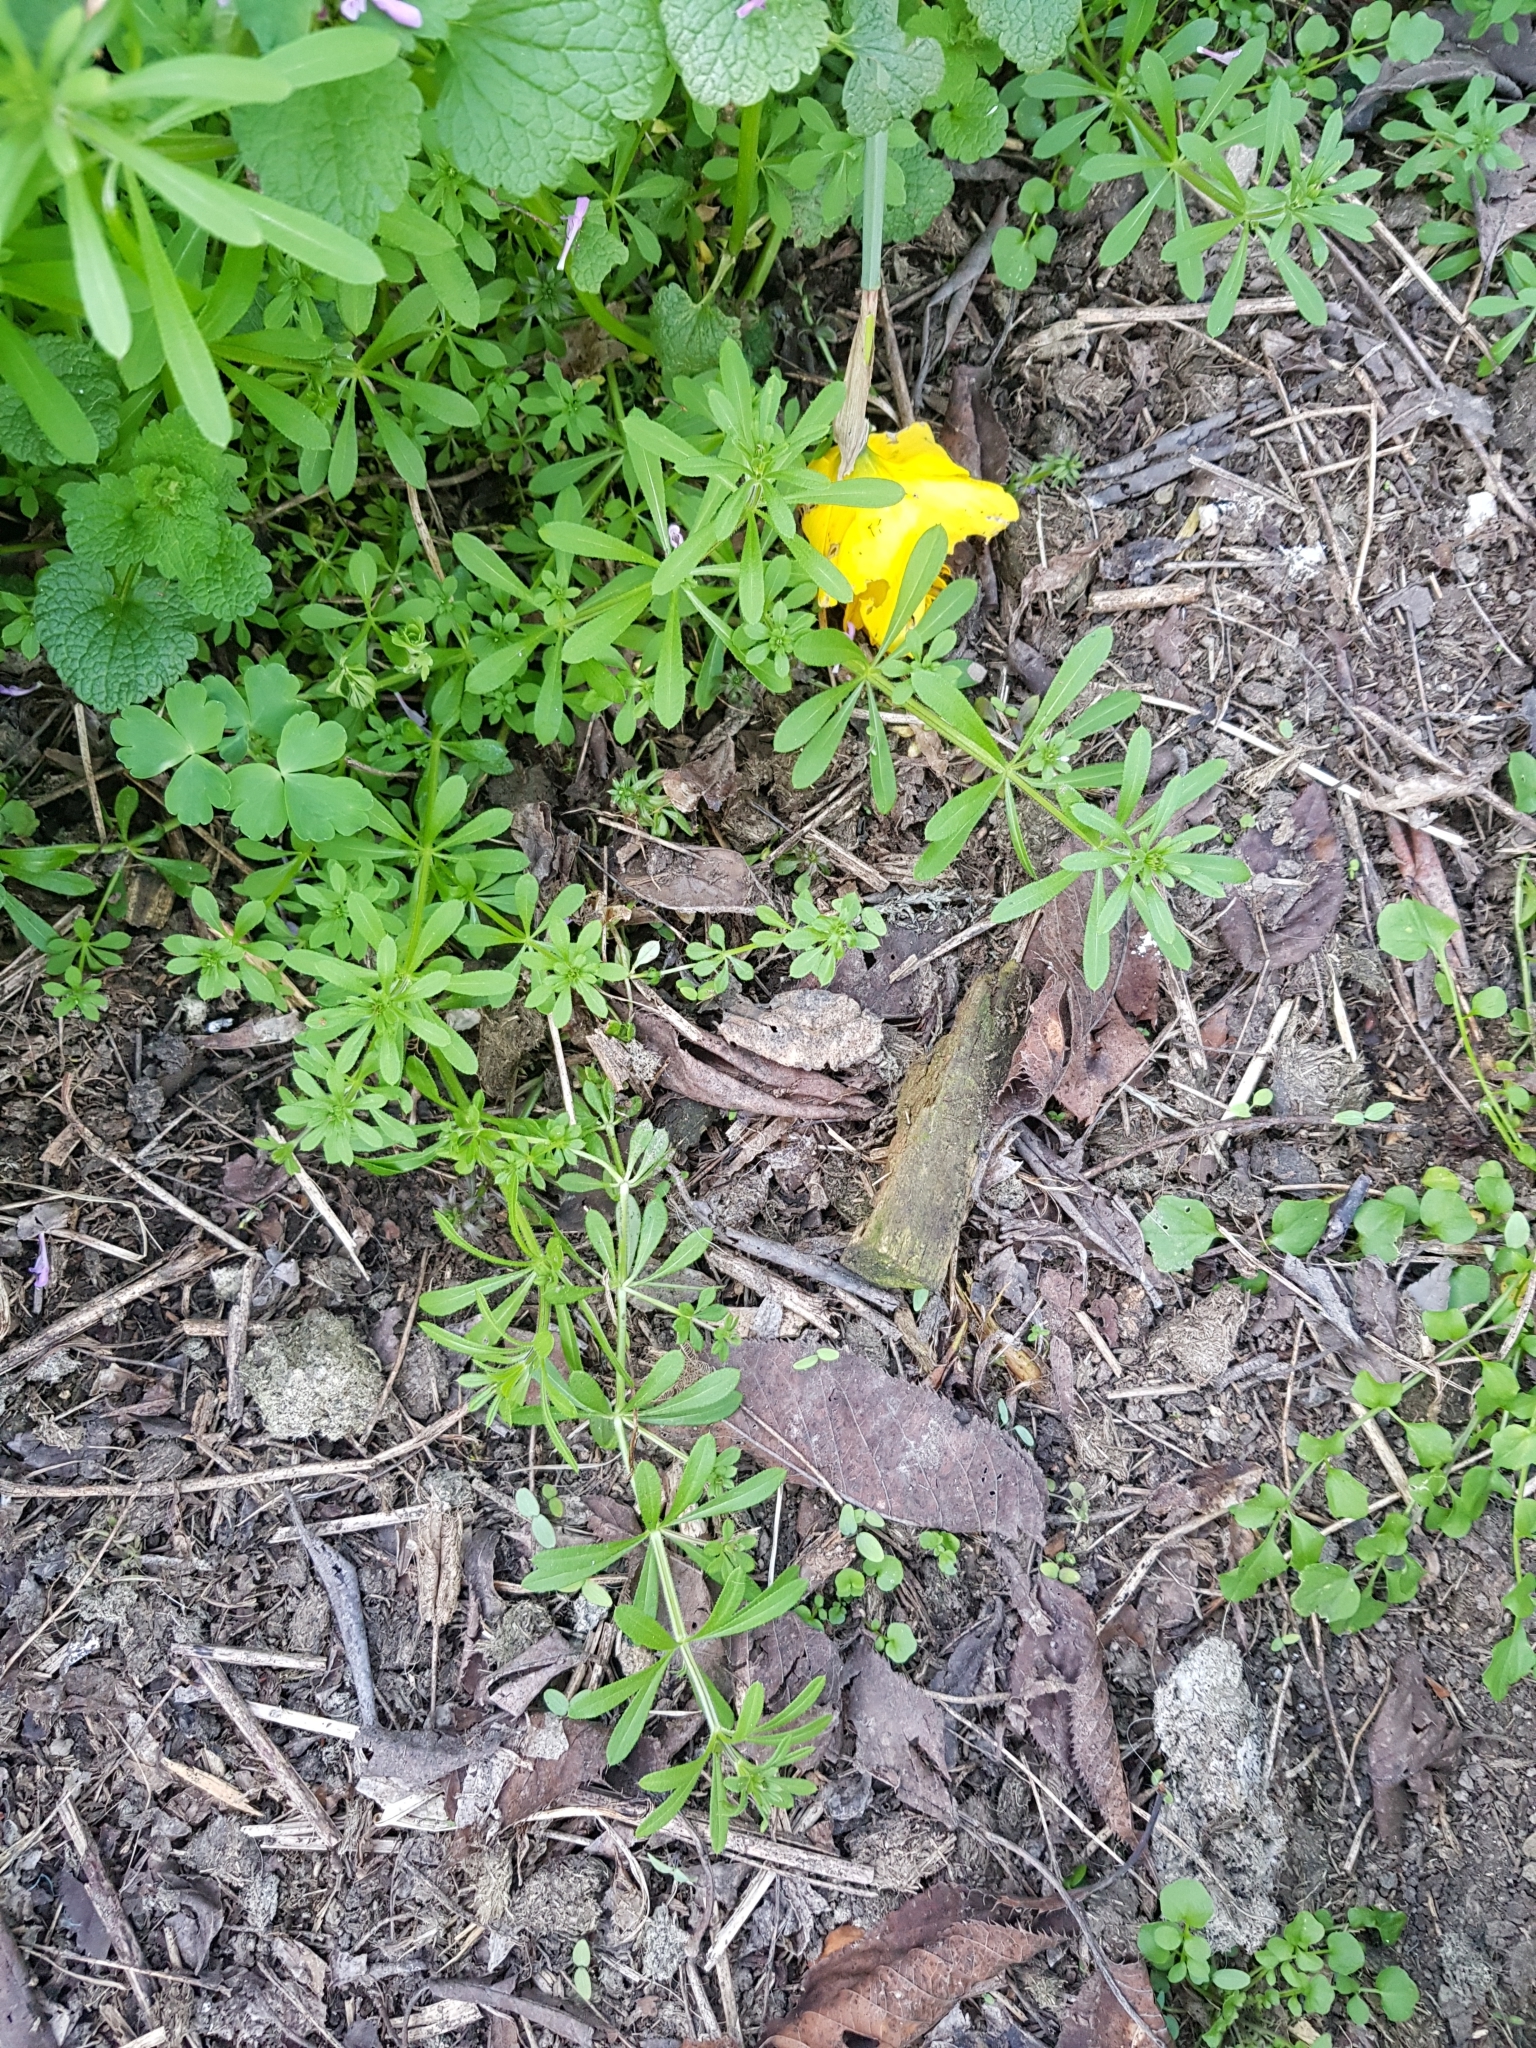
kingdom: Plantae
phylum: Tracheophyta
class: Magnoliopsida
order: Gentianales
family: Rubiaceae
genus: Galium
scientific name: Galium aparine
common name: Cleavers
